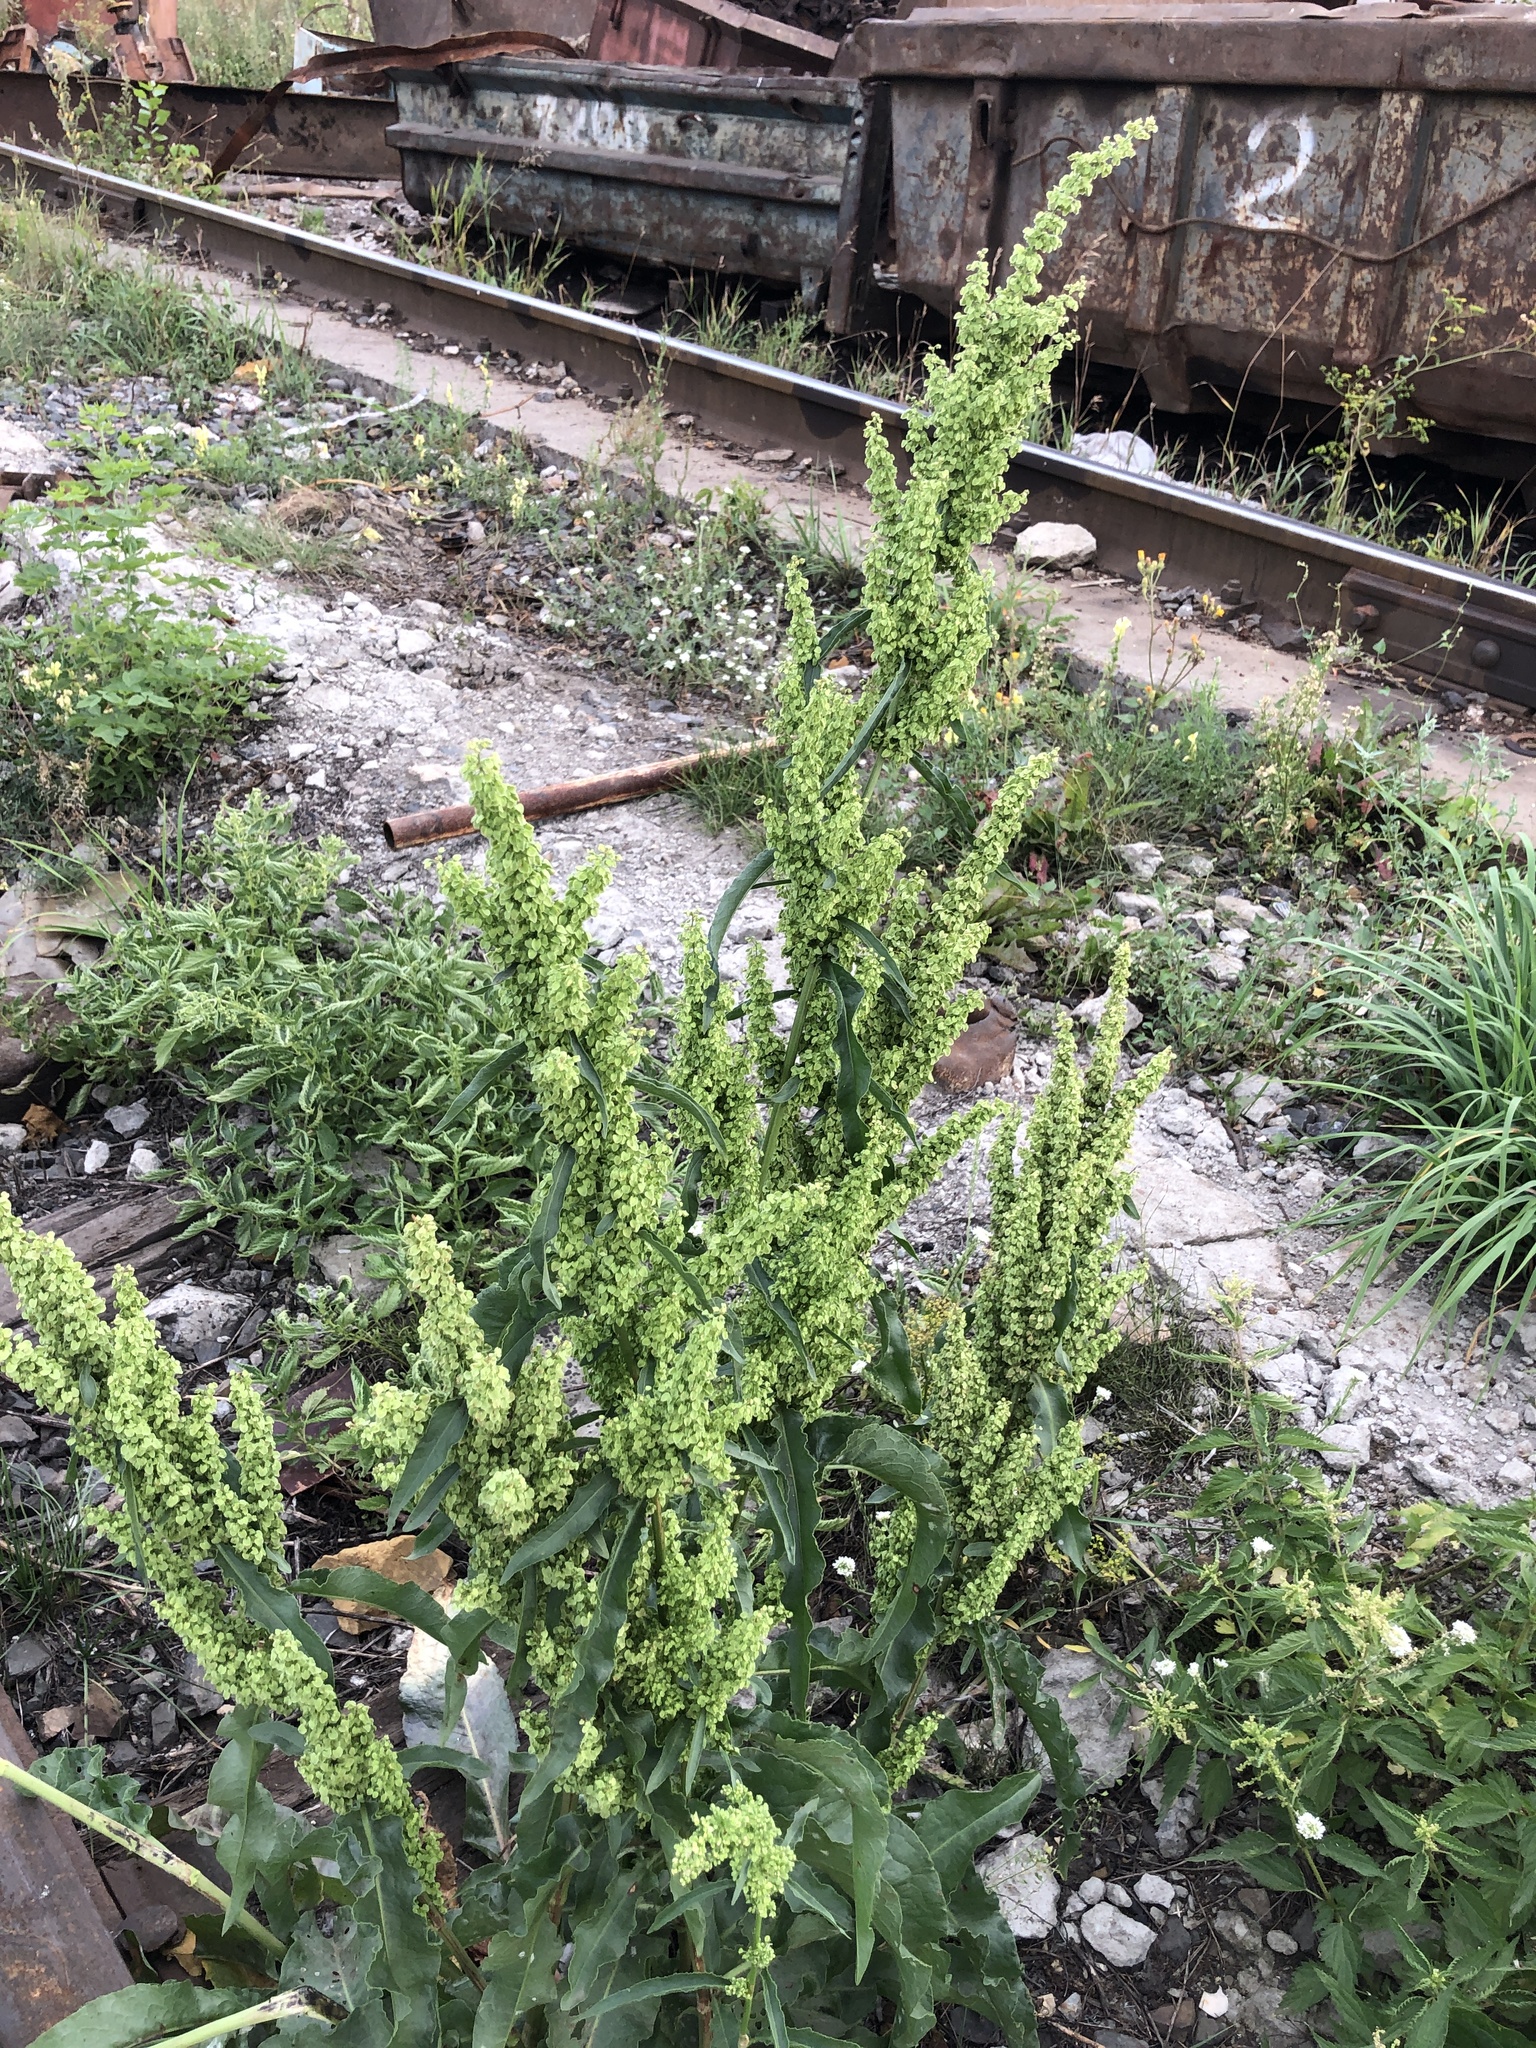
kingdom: Plantae
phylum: Tracheophyta
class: Magnoliopsida
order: Caryophyllales
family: Polygonaceae
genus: Rumex
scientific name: Rumex pseudonatronatus
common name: Field dock
